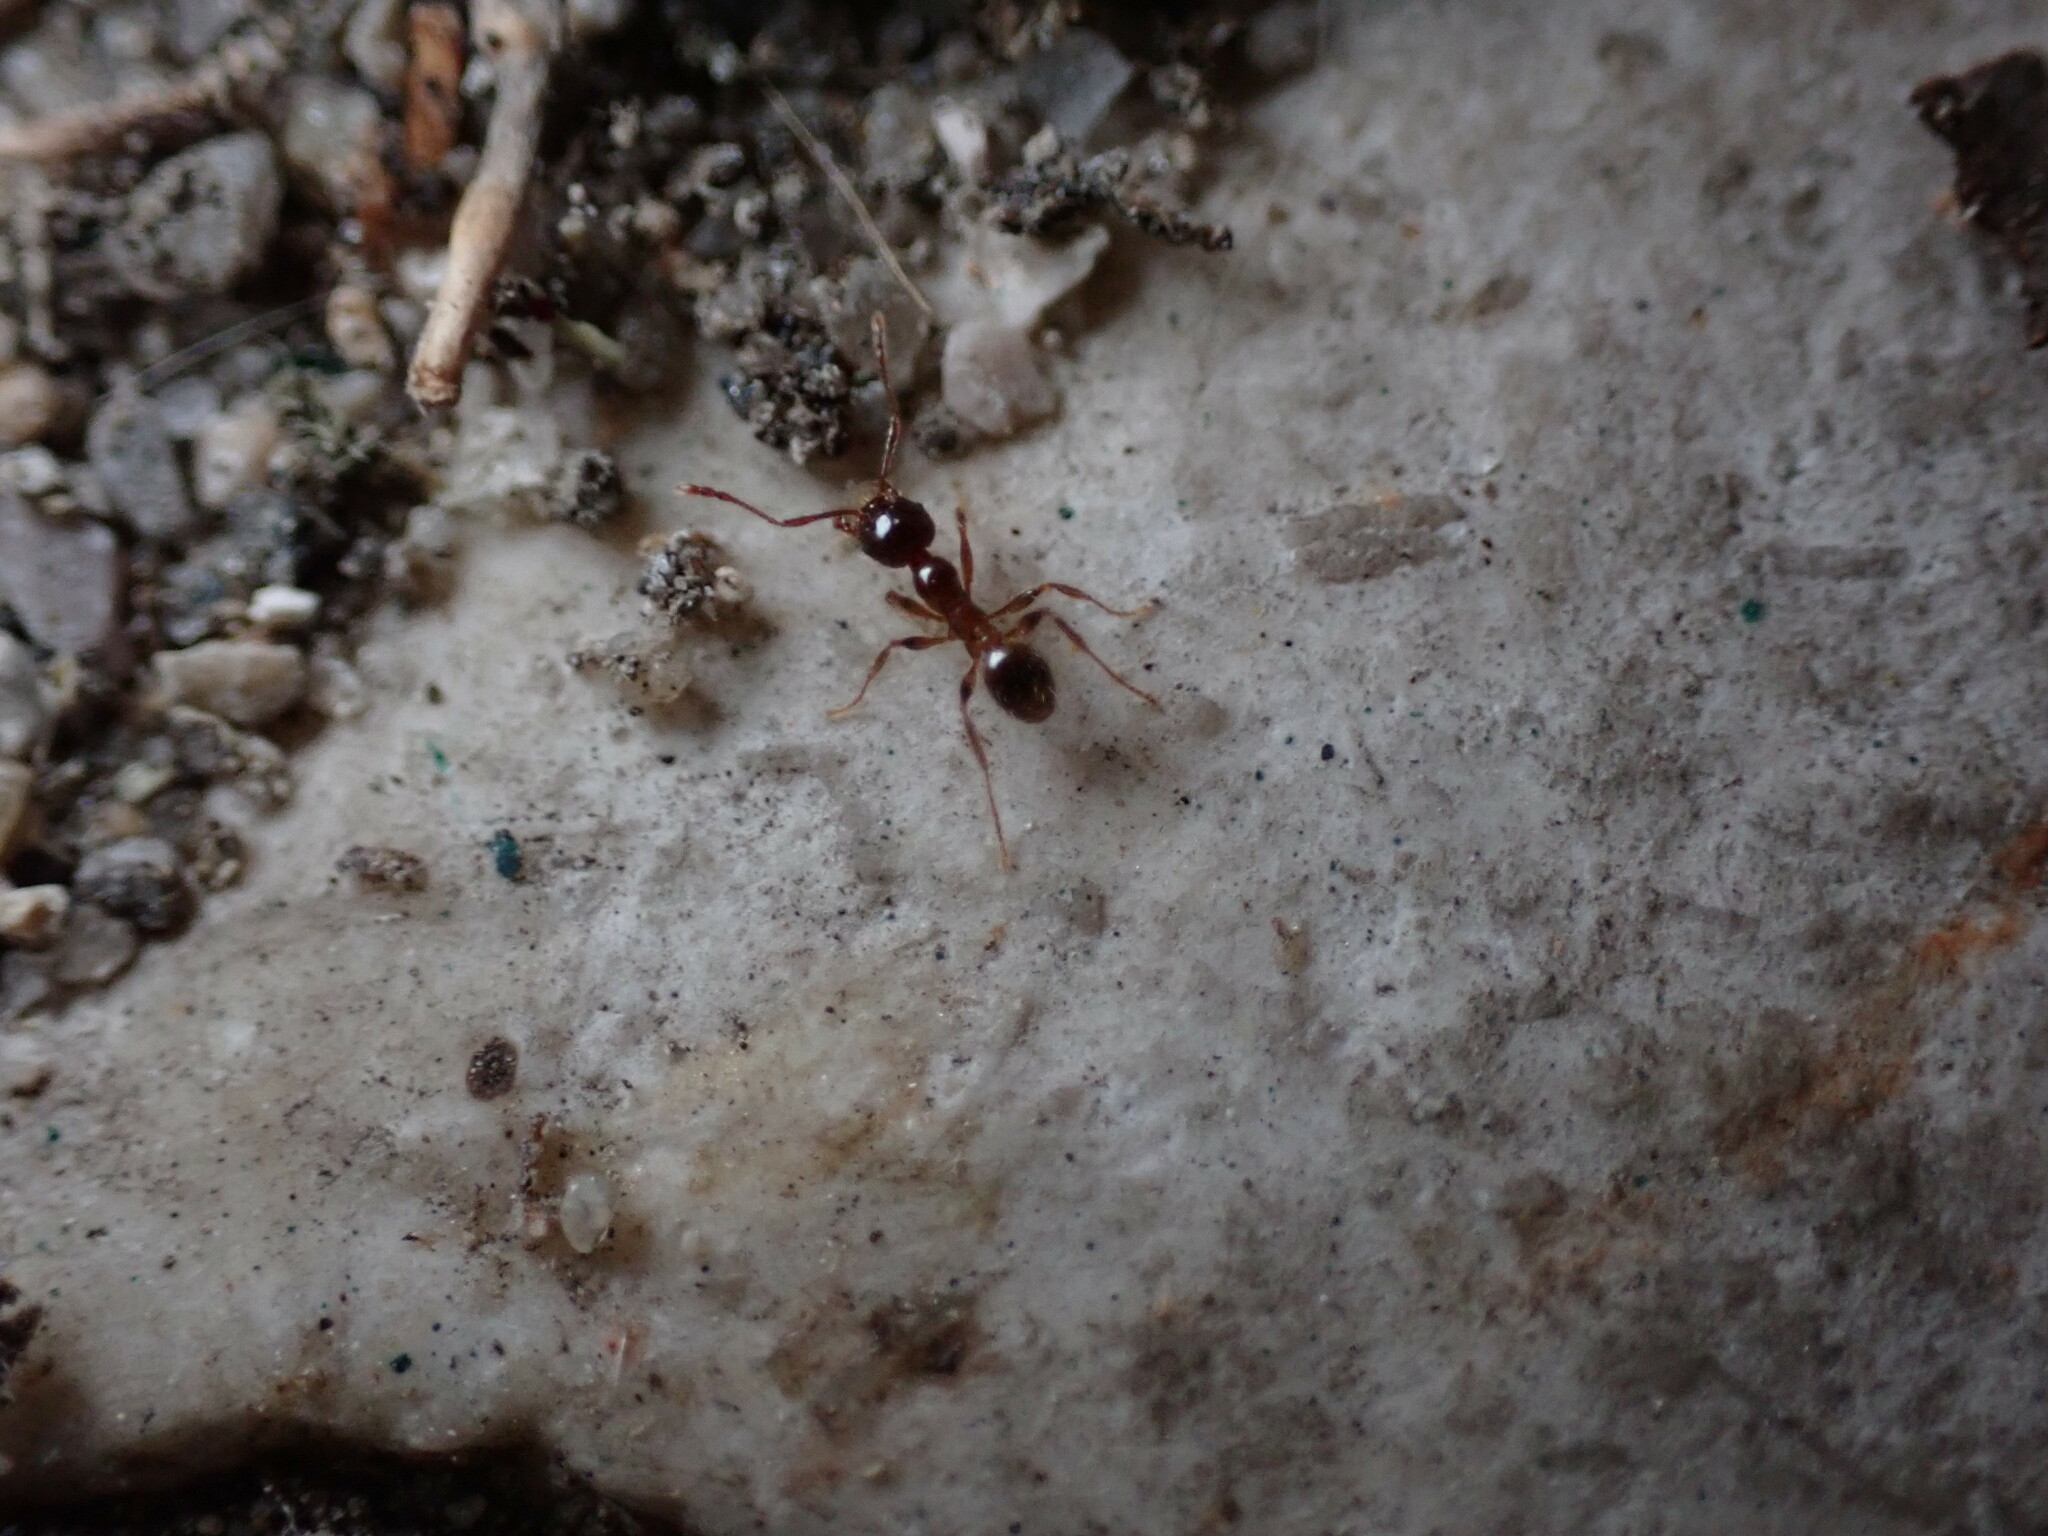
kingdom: Animalia
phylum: Arthropoda
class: Insecta
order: Hymenoptera
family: Formicidae
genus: Pheidole
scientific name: Pheidole pallidula
